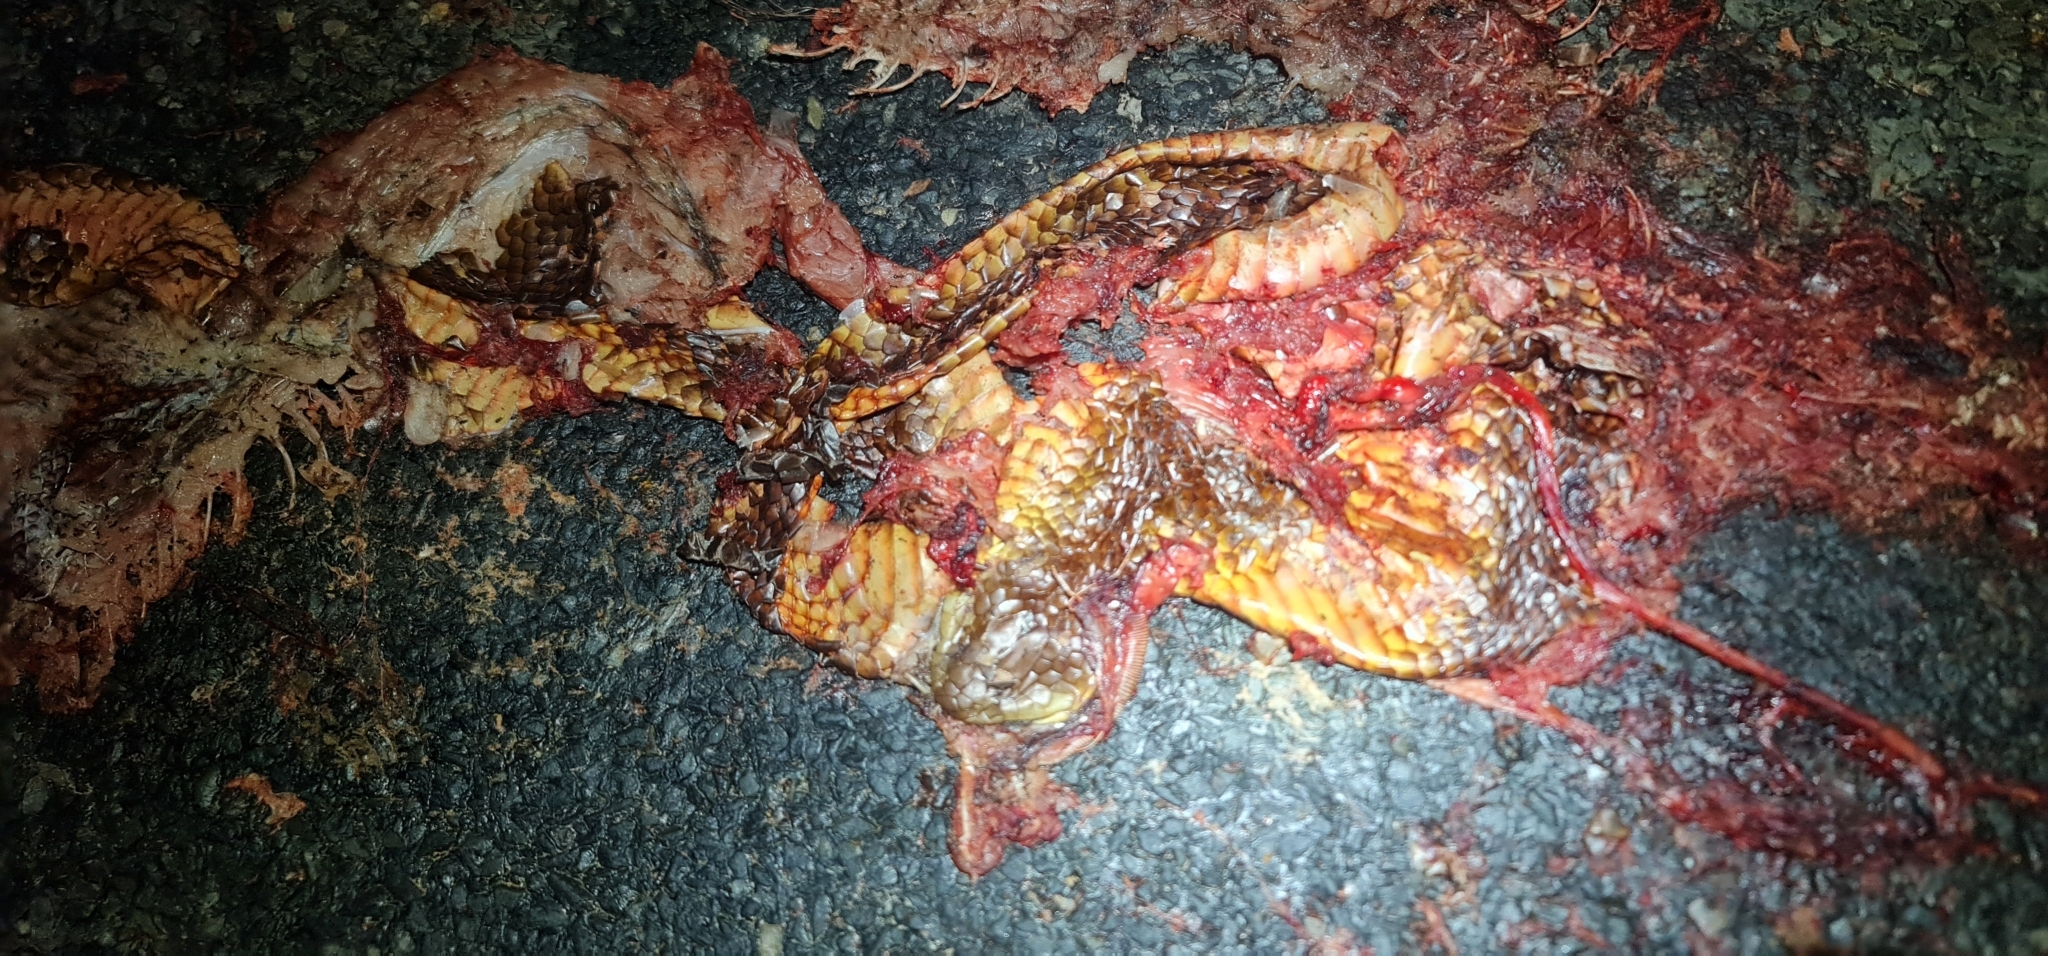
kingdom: Animalia
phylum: Chordata
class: Squamata
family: Elapidae
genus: Pseudechis
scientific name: Pseudechis australis
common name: King brown snake
